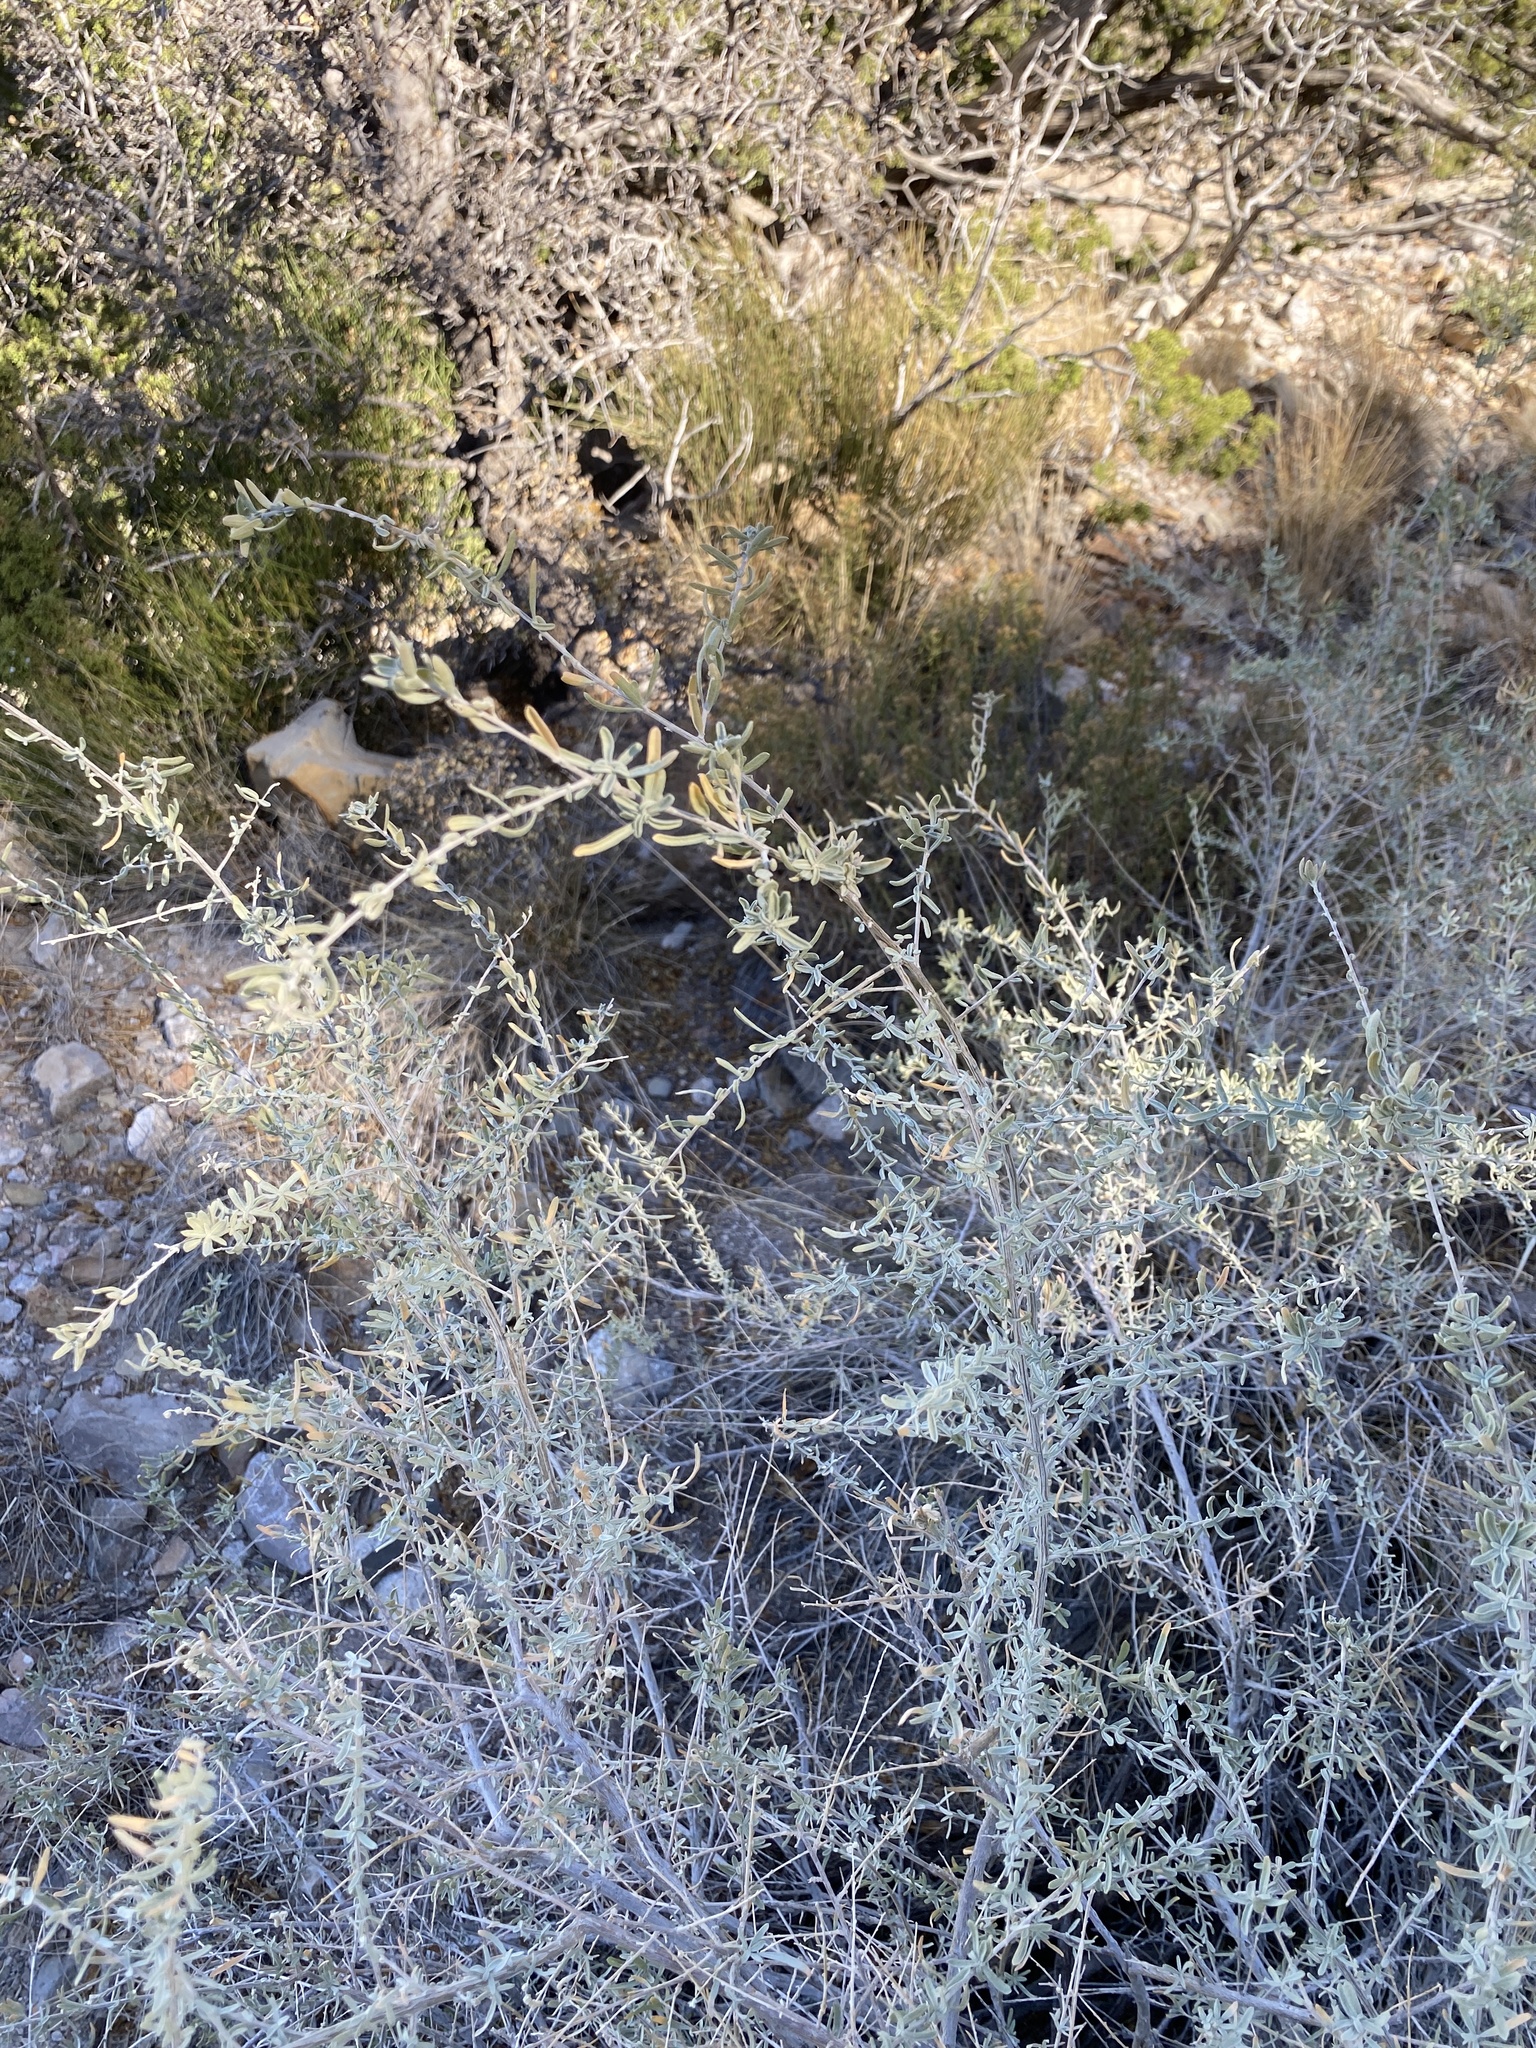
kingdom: Plantae
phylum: Tracheophyta
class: Magnoliopsida
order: Caryophyllales
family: Amaranthaceae
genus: Atriplex
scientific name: Atriplex canescens
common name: Four-wing saltbush
